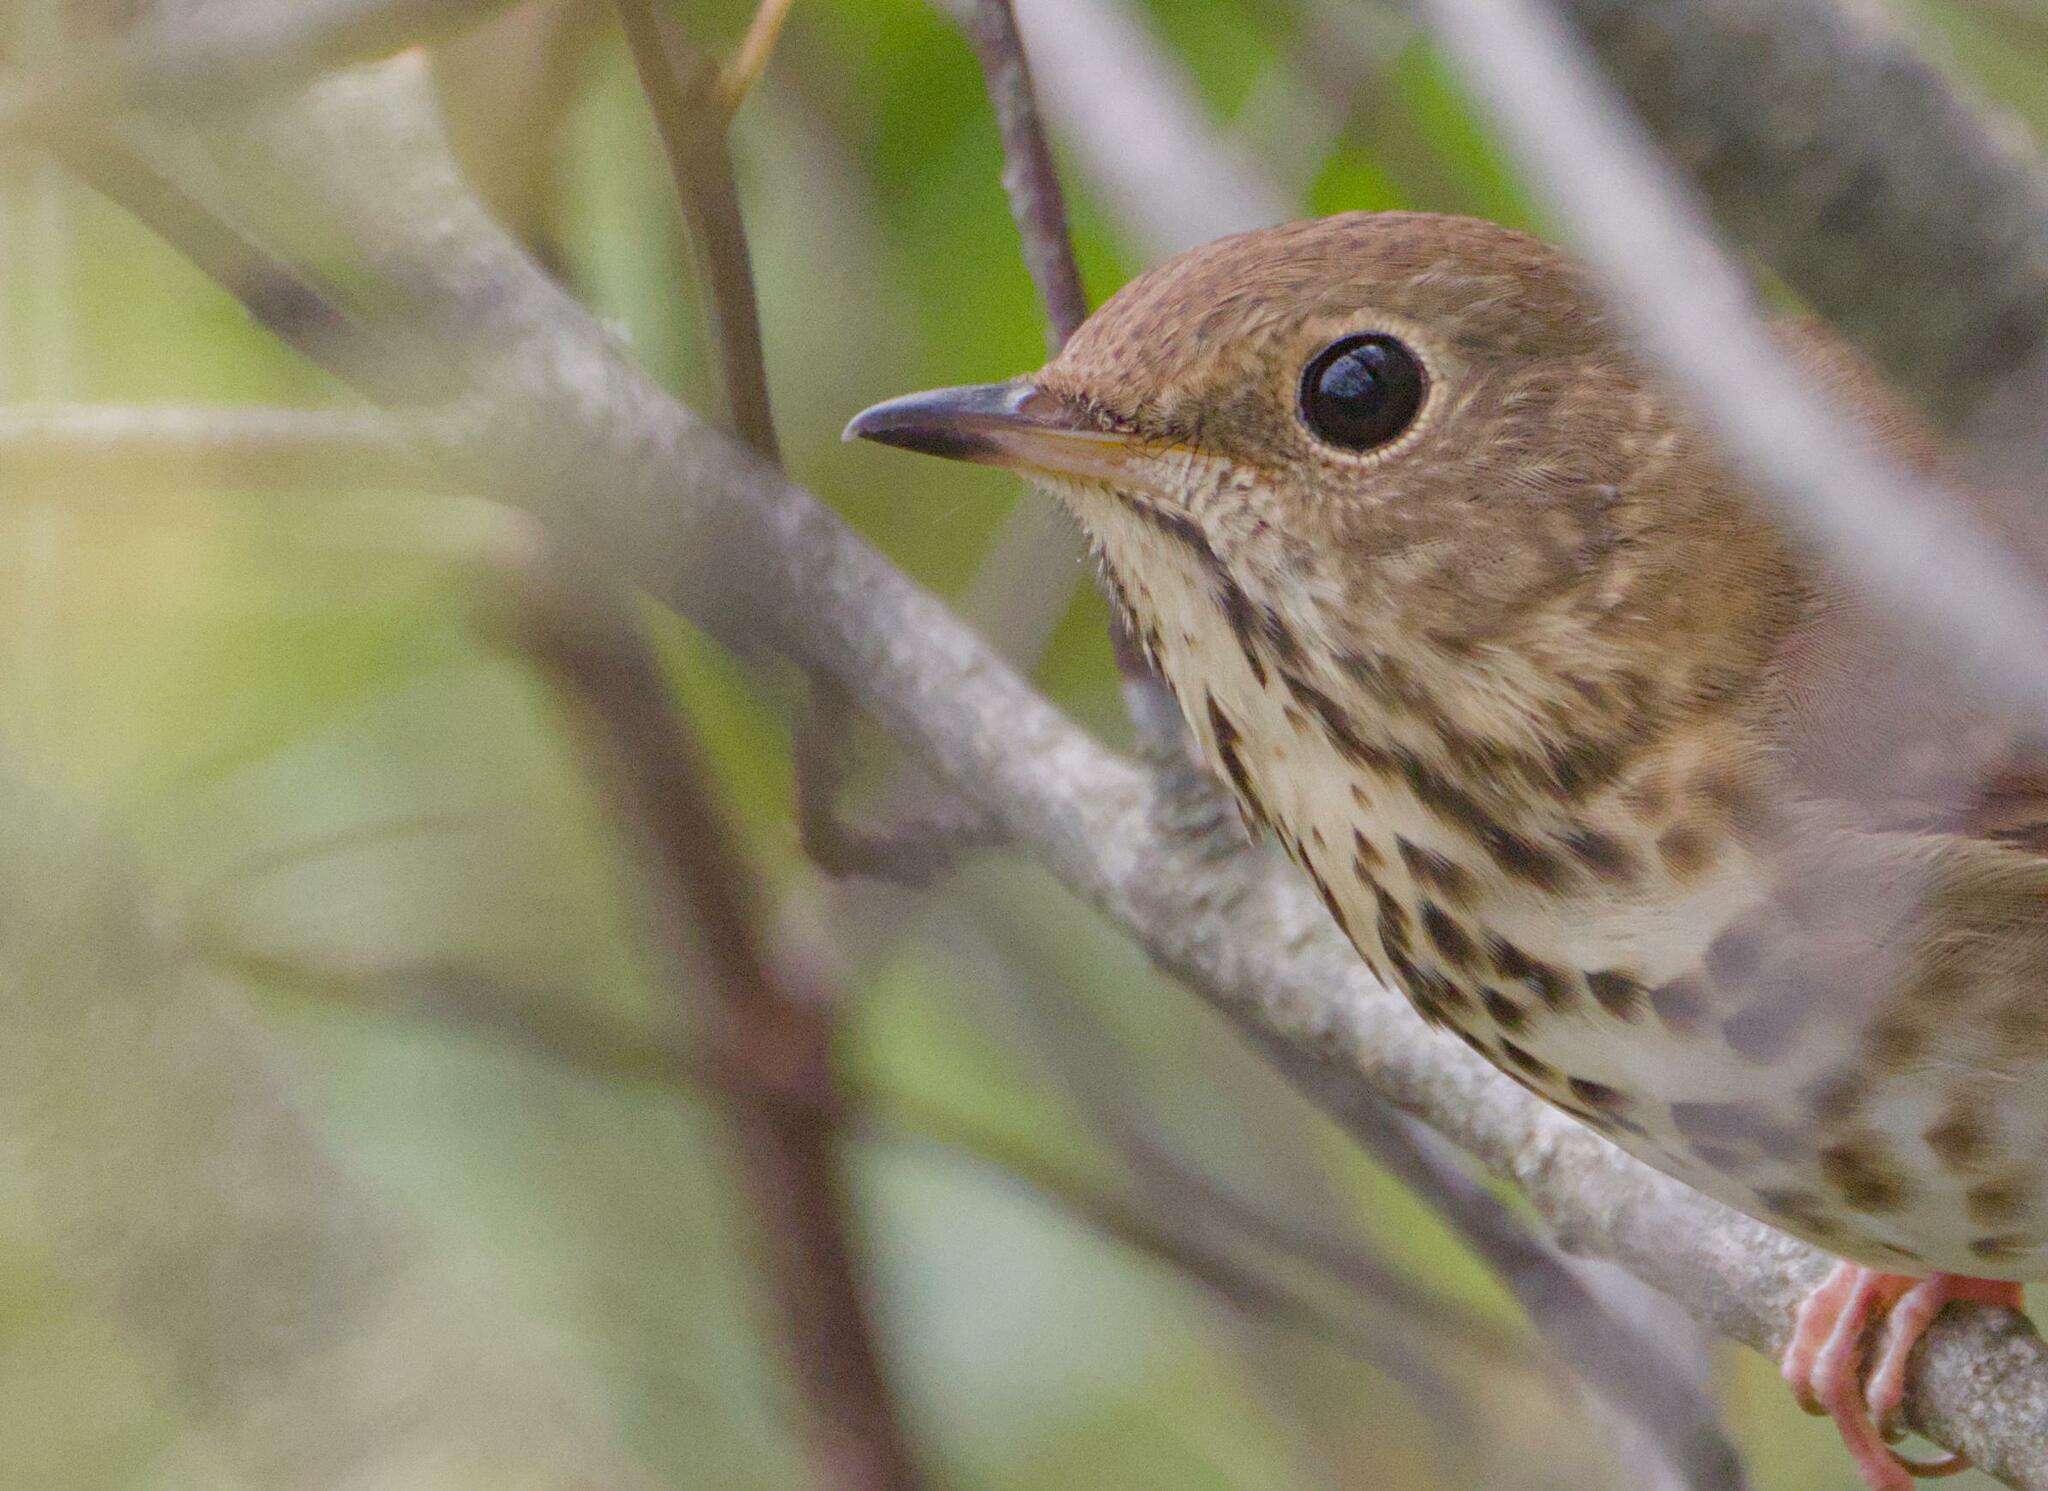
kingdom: Animalia
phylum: Chordata
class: Aves
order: Passeriformes
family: Turdidae
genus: Catharus
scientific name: Catharus guttatus
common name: Hermit thrush
